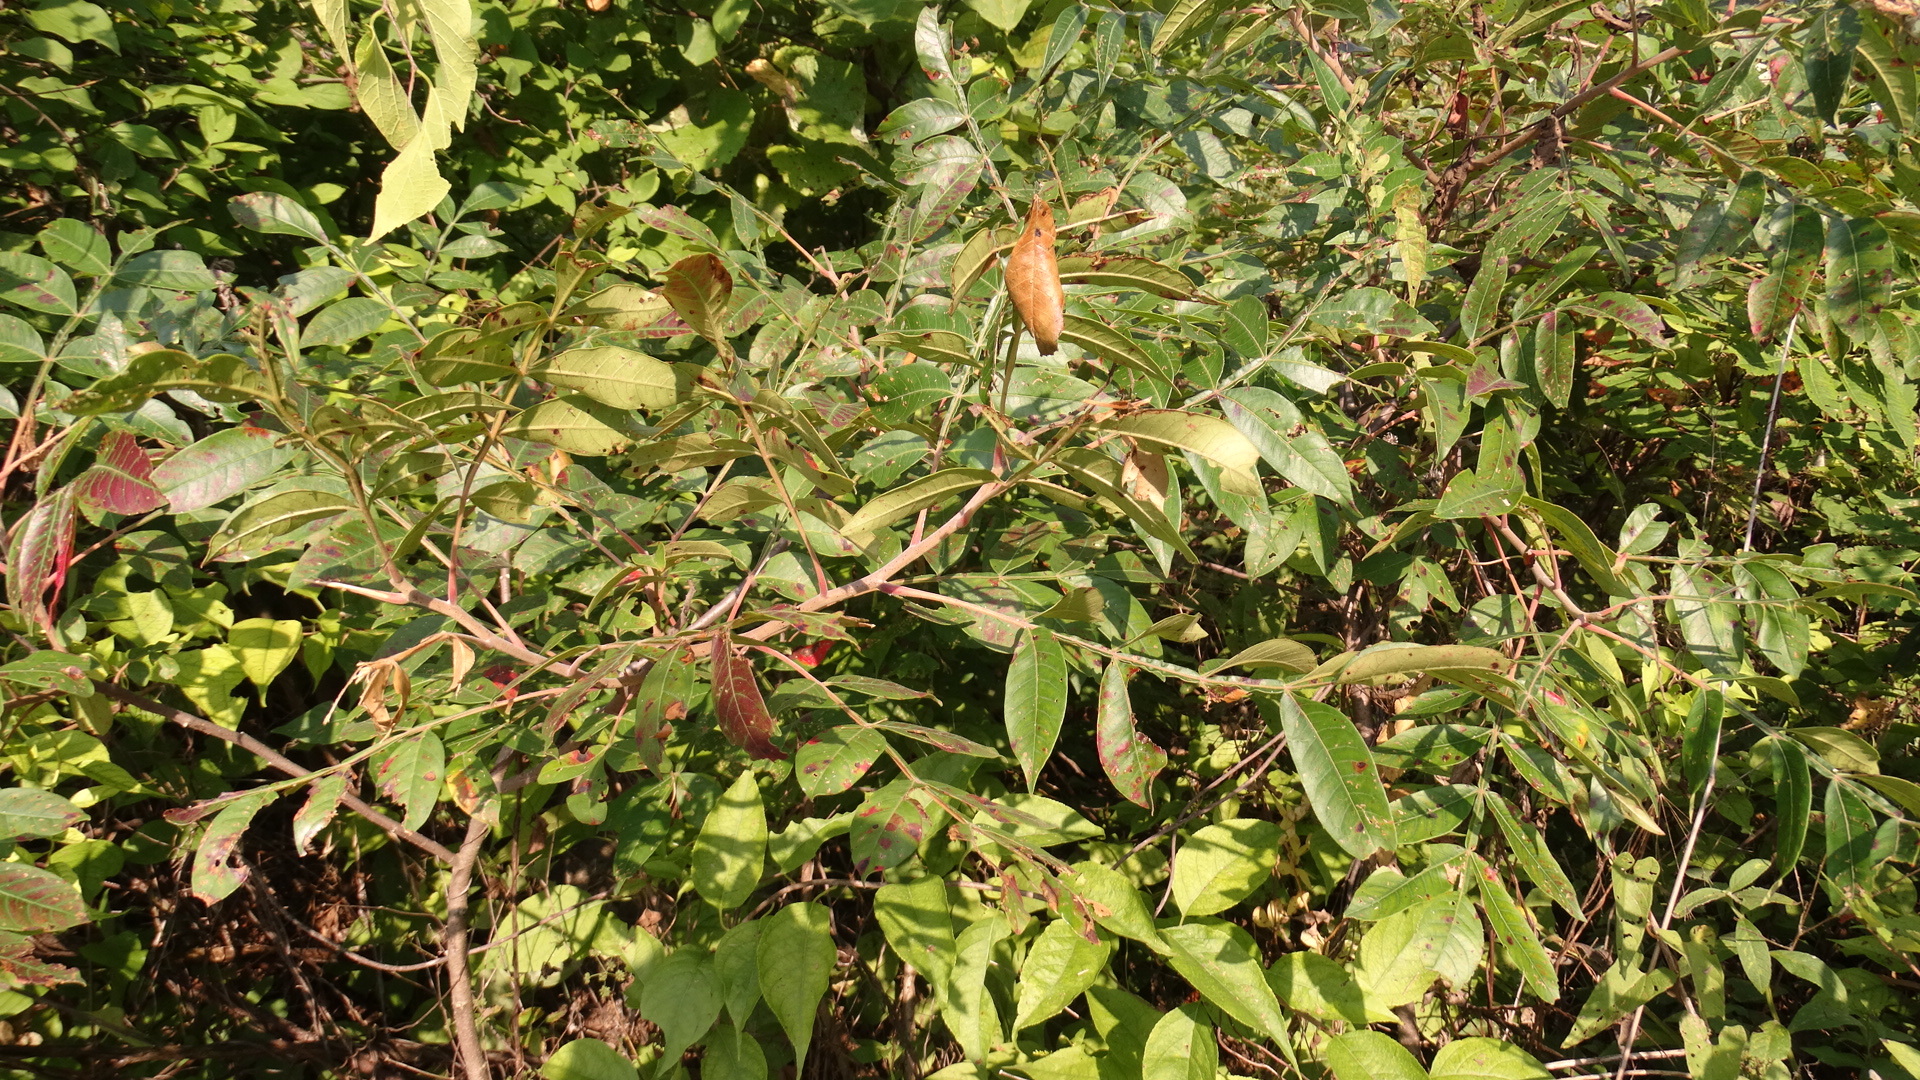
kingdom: Plantae
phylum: Tracheophyta
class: Magnoliopsida
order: Sapindales
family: Anacardiaceae
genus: Rhus
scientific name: Rhus copallina
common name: Shining sumac
